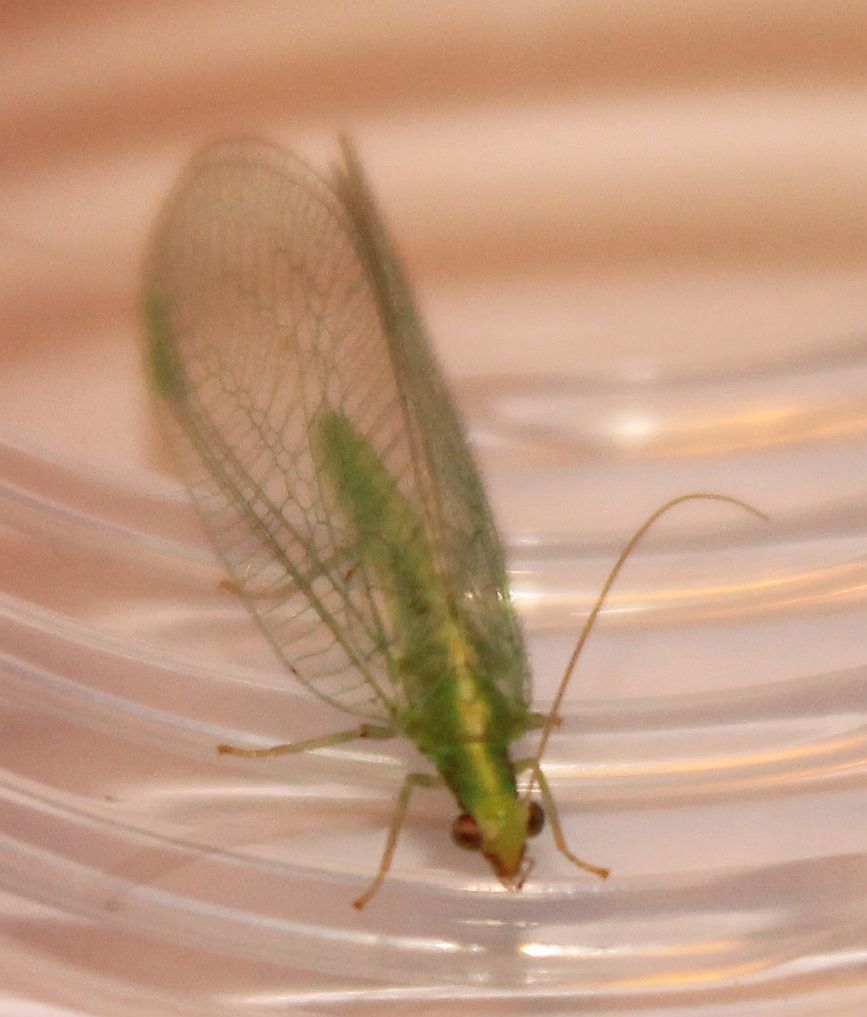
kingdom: Animalia
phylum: Arthropoda
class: Insecta
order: Neuroptera
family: Chrysopidae
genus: Chrysoperla
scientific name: Chrysoperla
